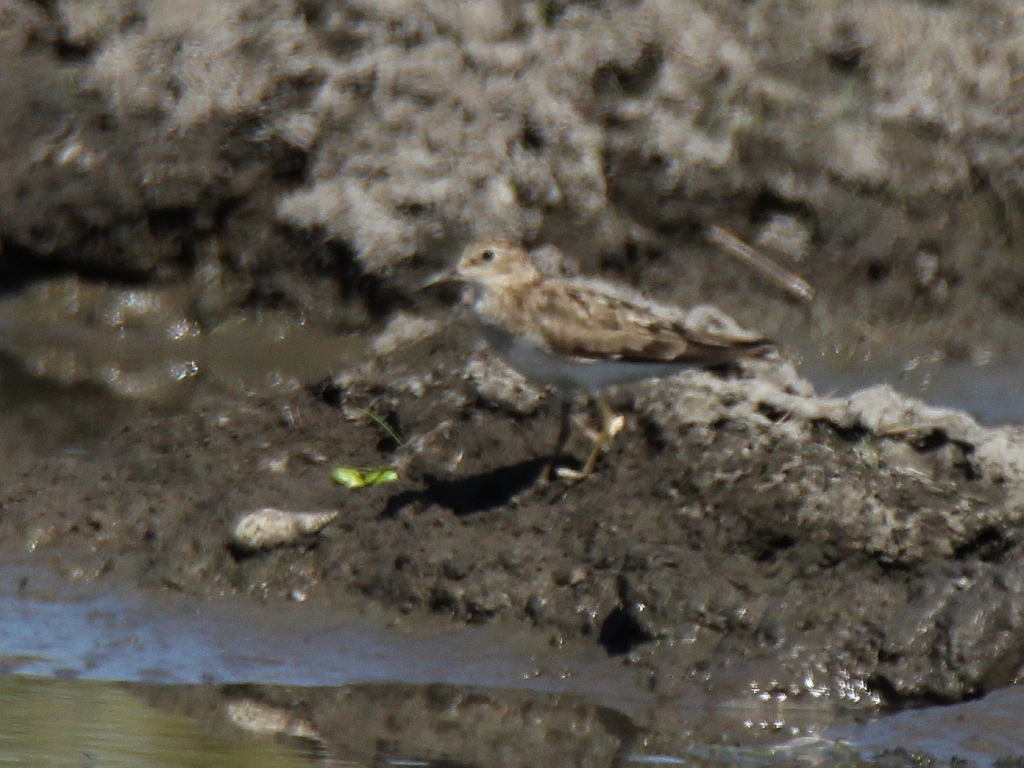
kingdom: Animalia
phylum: Chordata
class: Aves
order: Charadriiformes
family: Scolopacidae
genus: Calidris
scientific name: Calidris temminckii
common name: Temminck's stint
